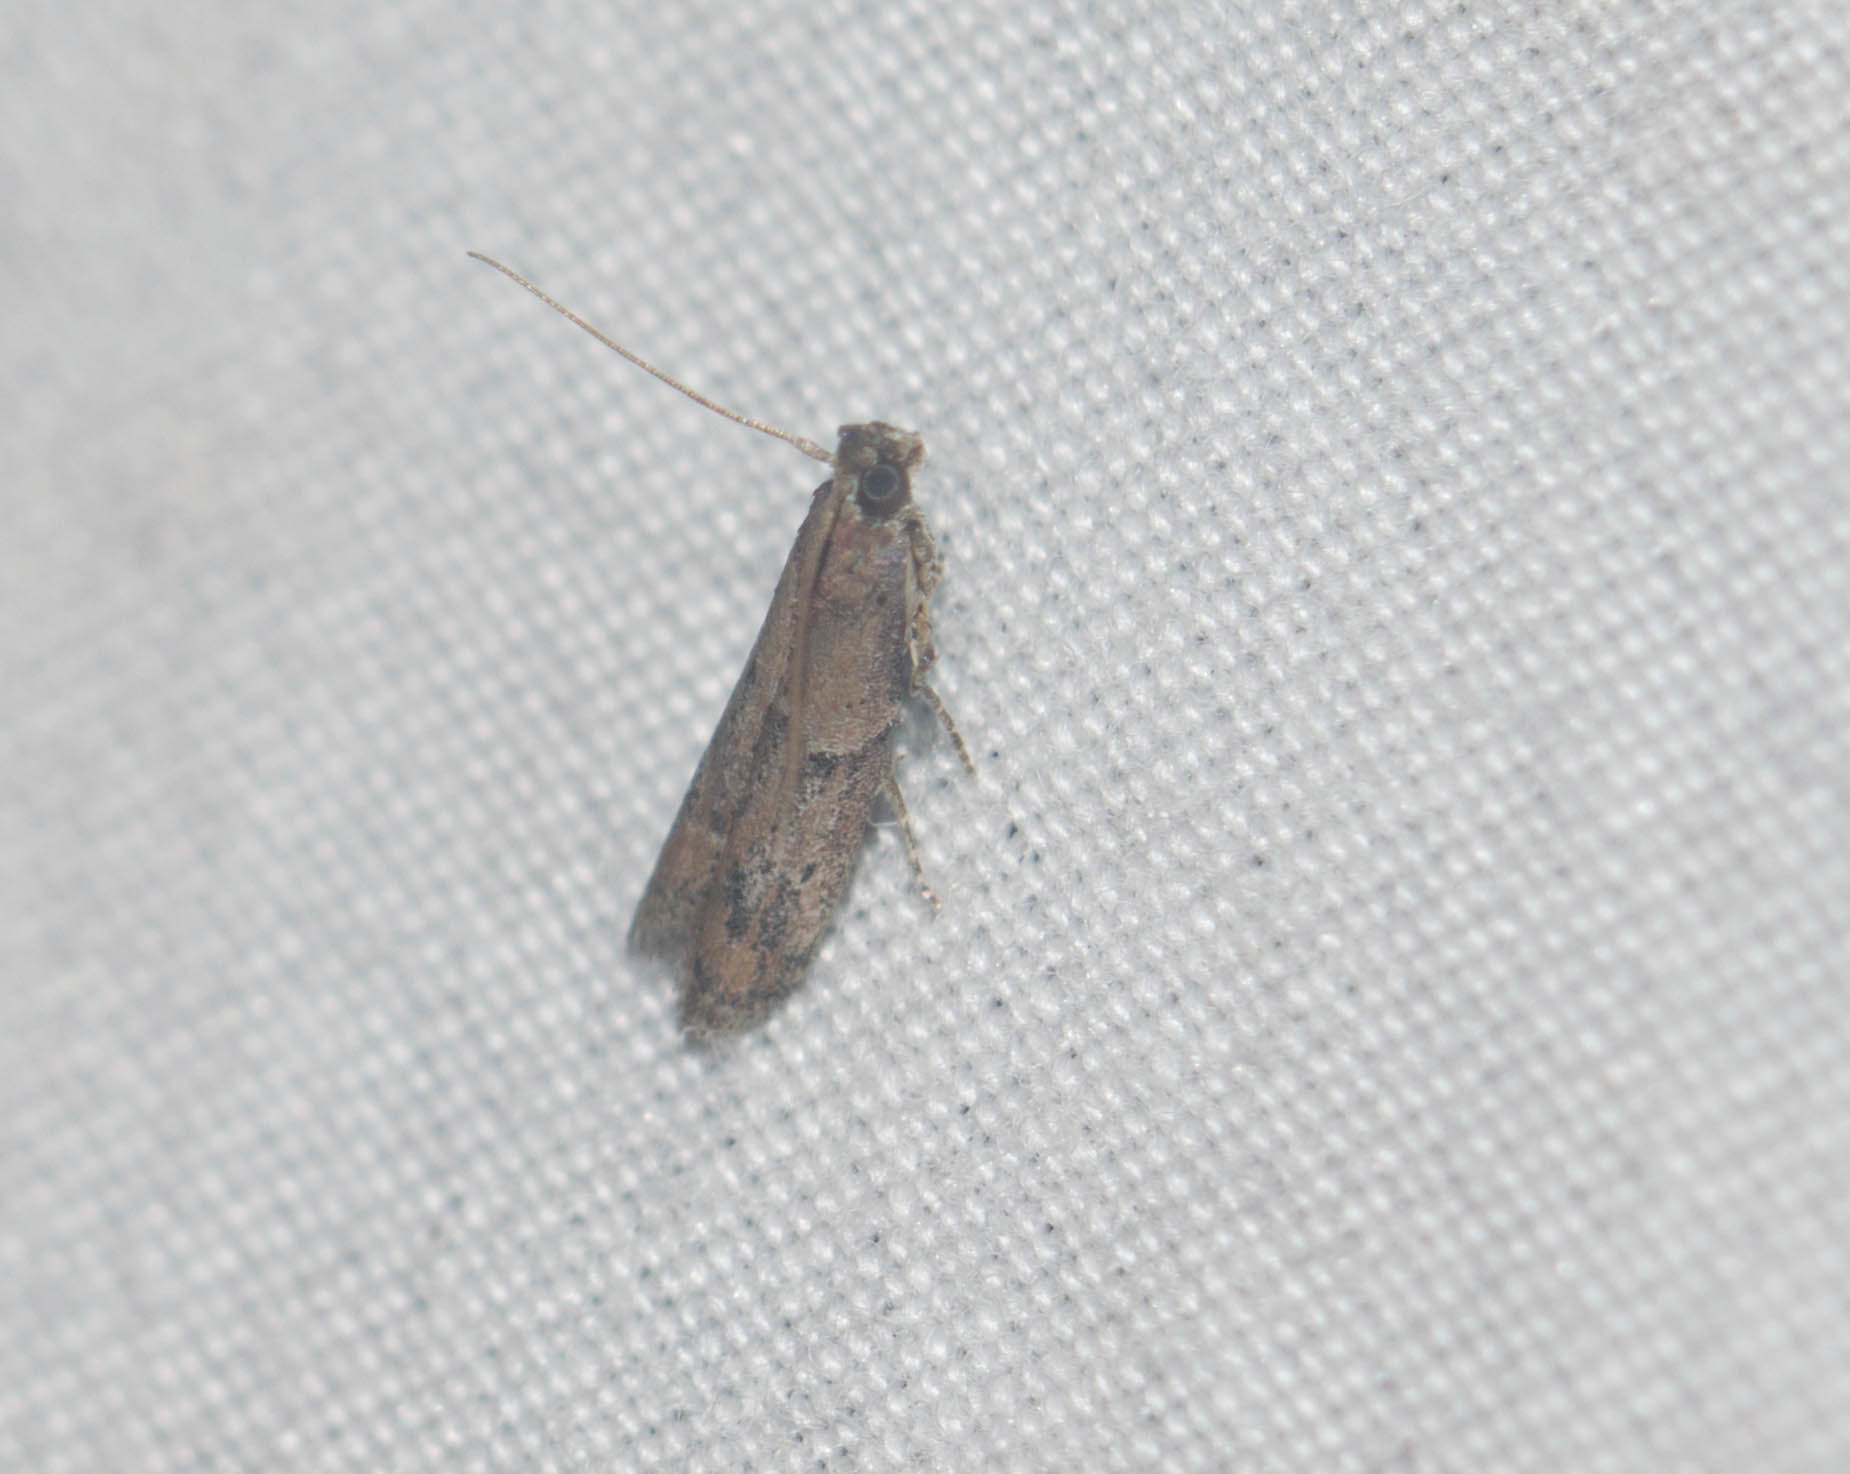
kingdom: Animalia
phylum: Arthropoda
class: Insecta
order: Lepidoptera
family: Pyralidae
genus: Ephestiodes
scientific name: Ephestiodes gilvescentella
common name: Moth
